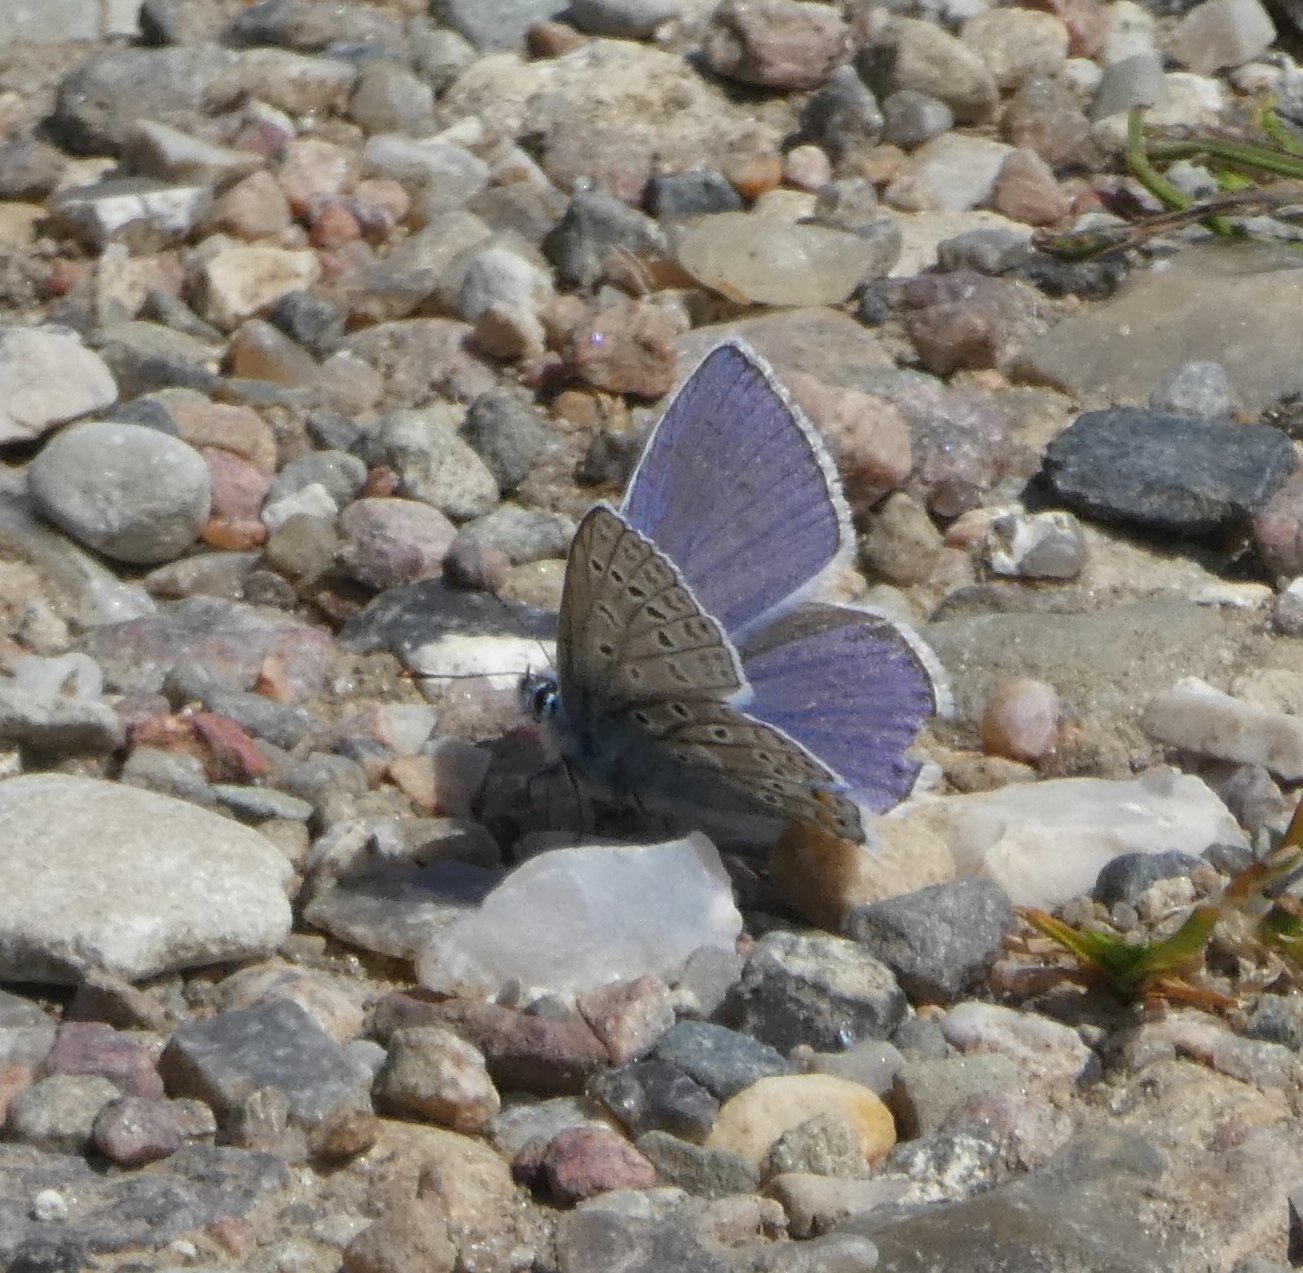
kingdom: Animalia
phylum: Arthropoda
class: Insecta
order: Lepidoptera
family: Lycaenidae
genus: Polyommatus
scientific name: Polyommatus icarus
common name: Common blue
